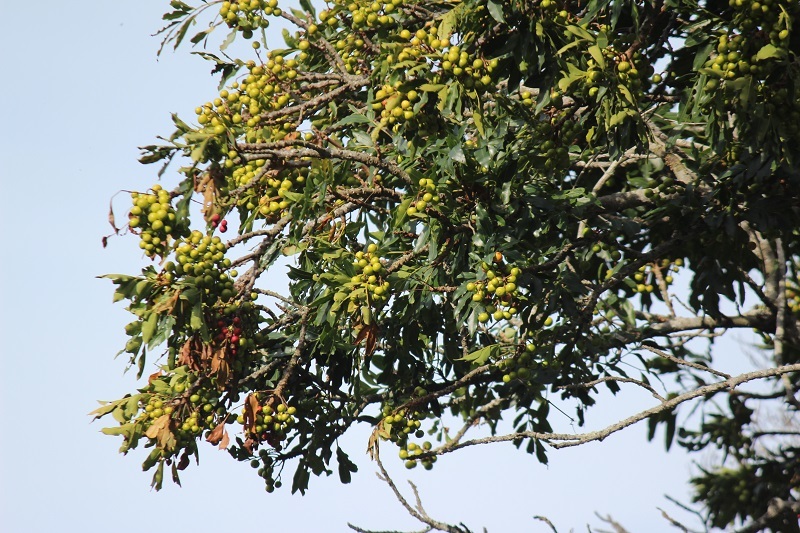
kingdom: Plantae
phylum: Tracheophyta
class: Magnoliopsida
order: Sapindales
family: Meliaceae
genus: Ekebergia
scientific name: Ekebergia capensis
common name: Cape-ash
